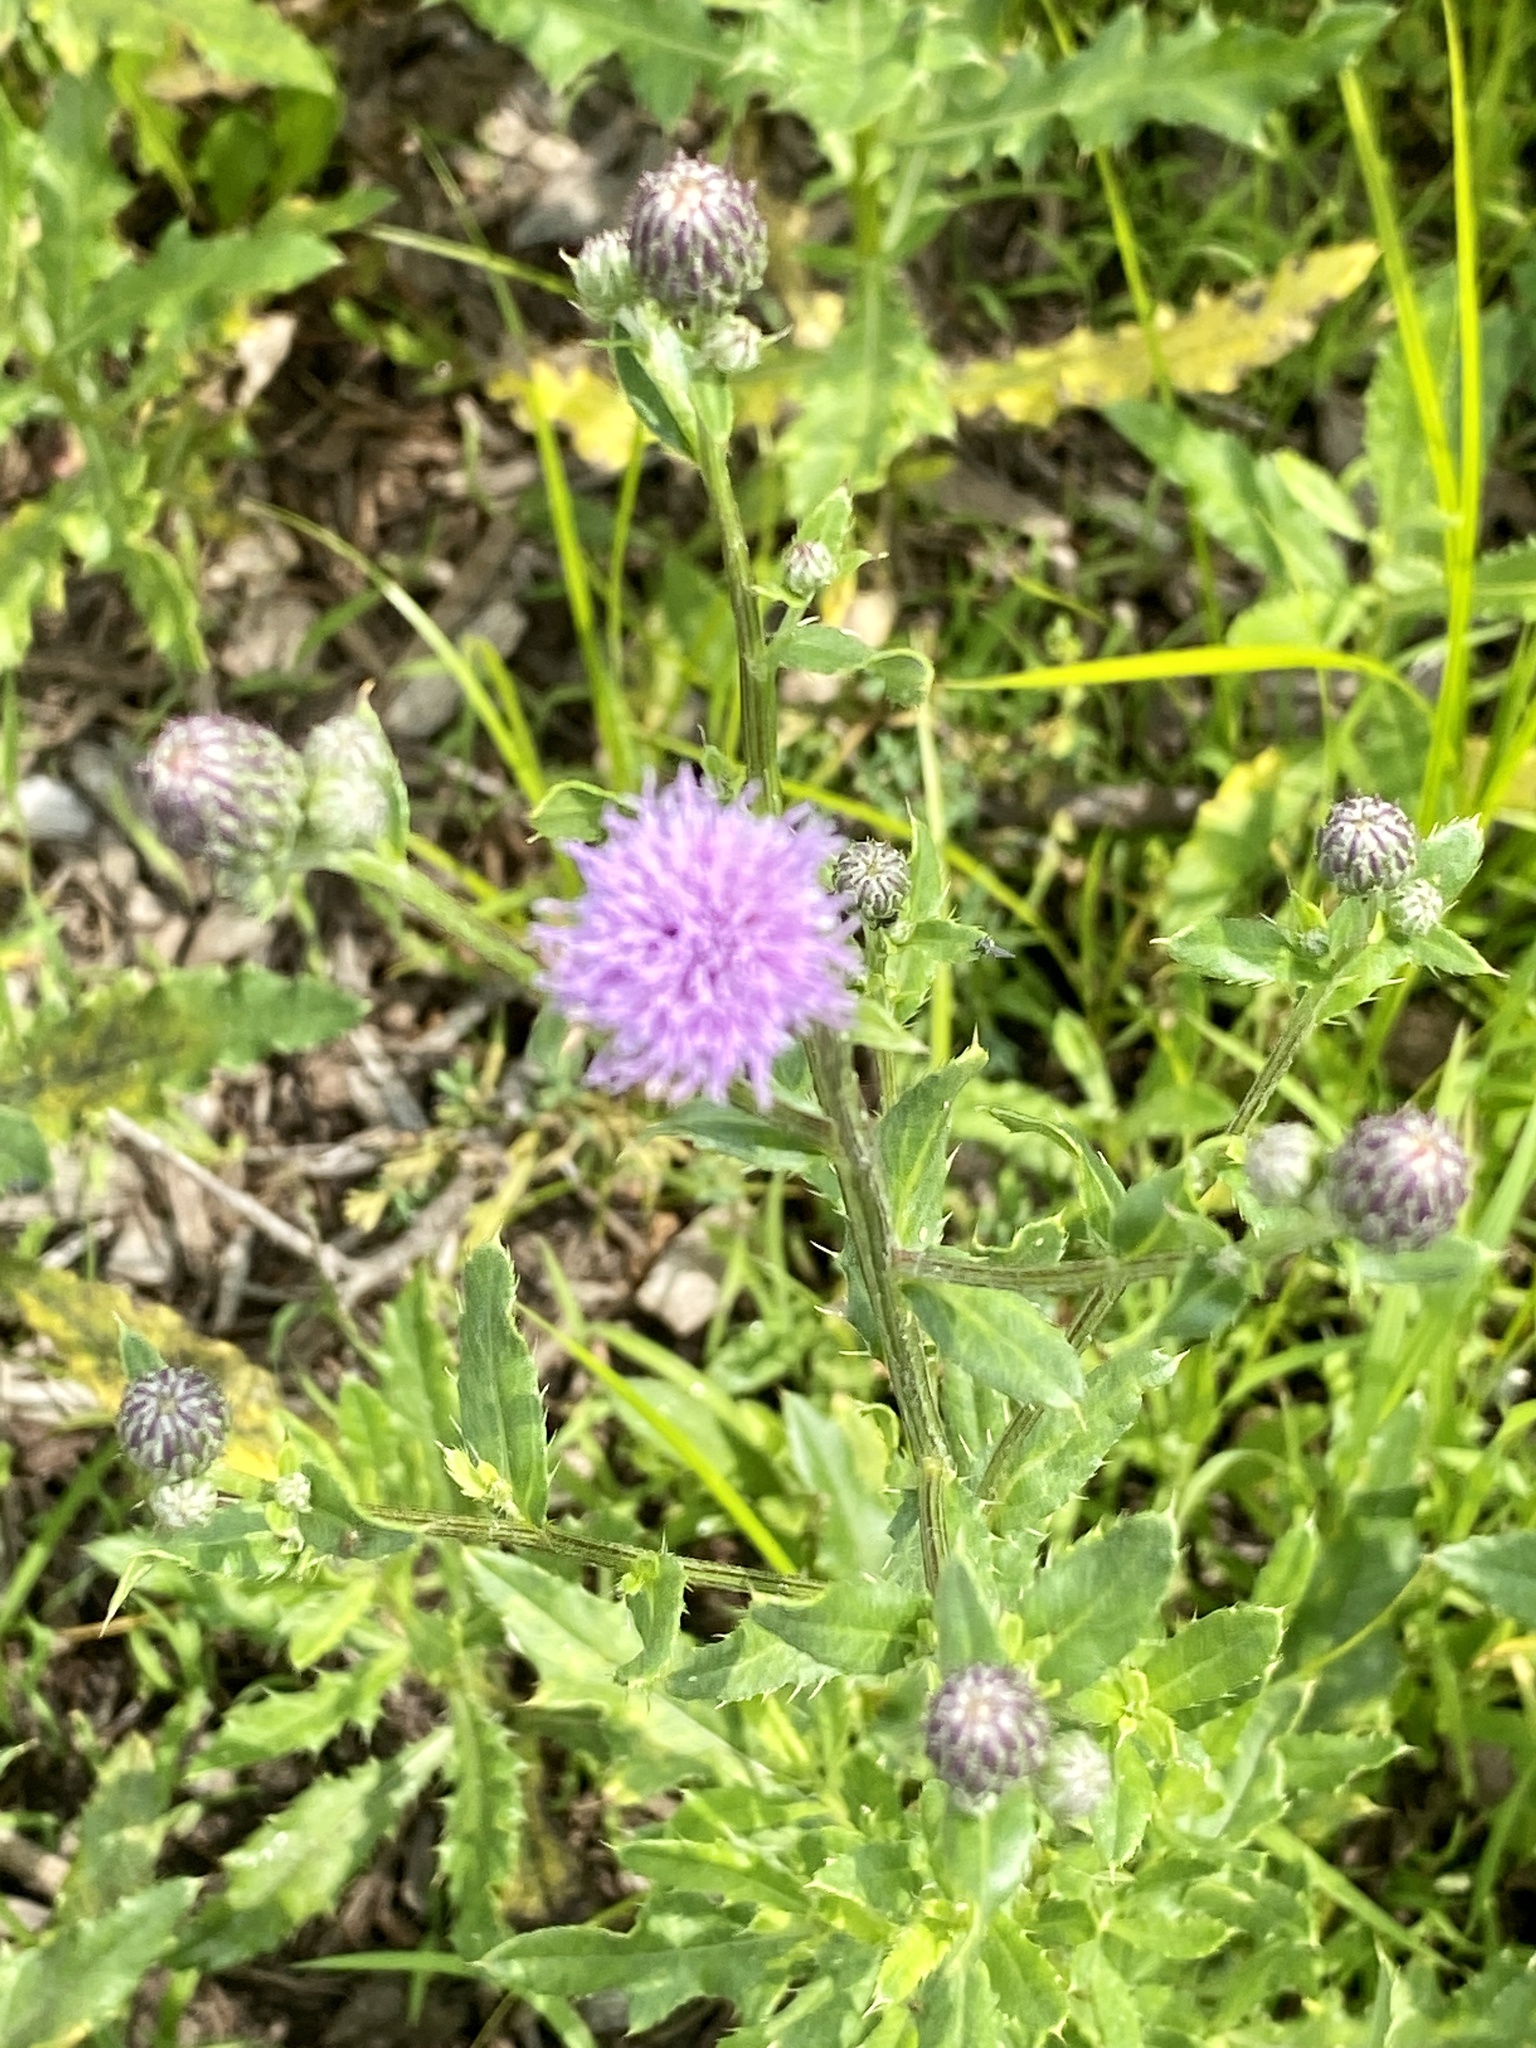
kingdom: Plantae
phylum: Tracheophyta
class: Magnoliopsida
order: Asterales
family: Asteraceae
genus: Cirsium
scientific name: Cirsium arvense
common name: Creeping thistle
